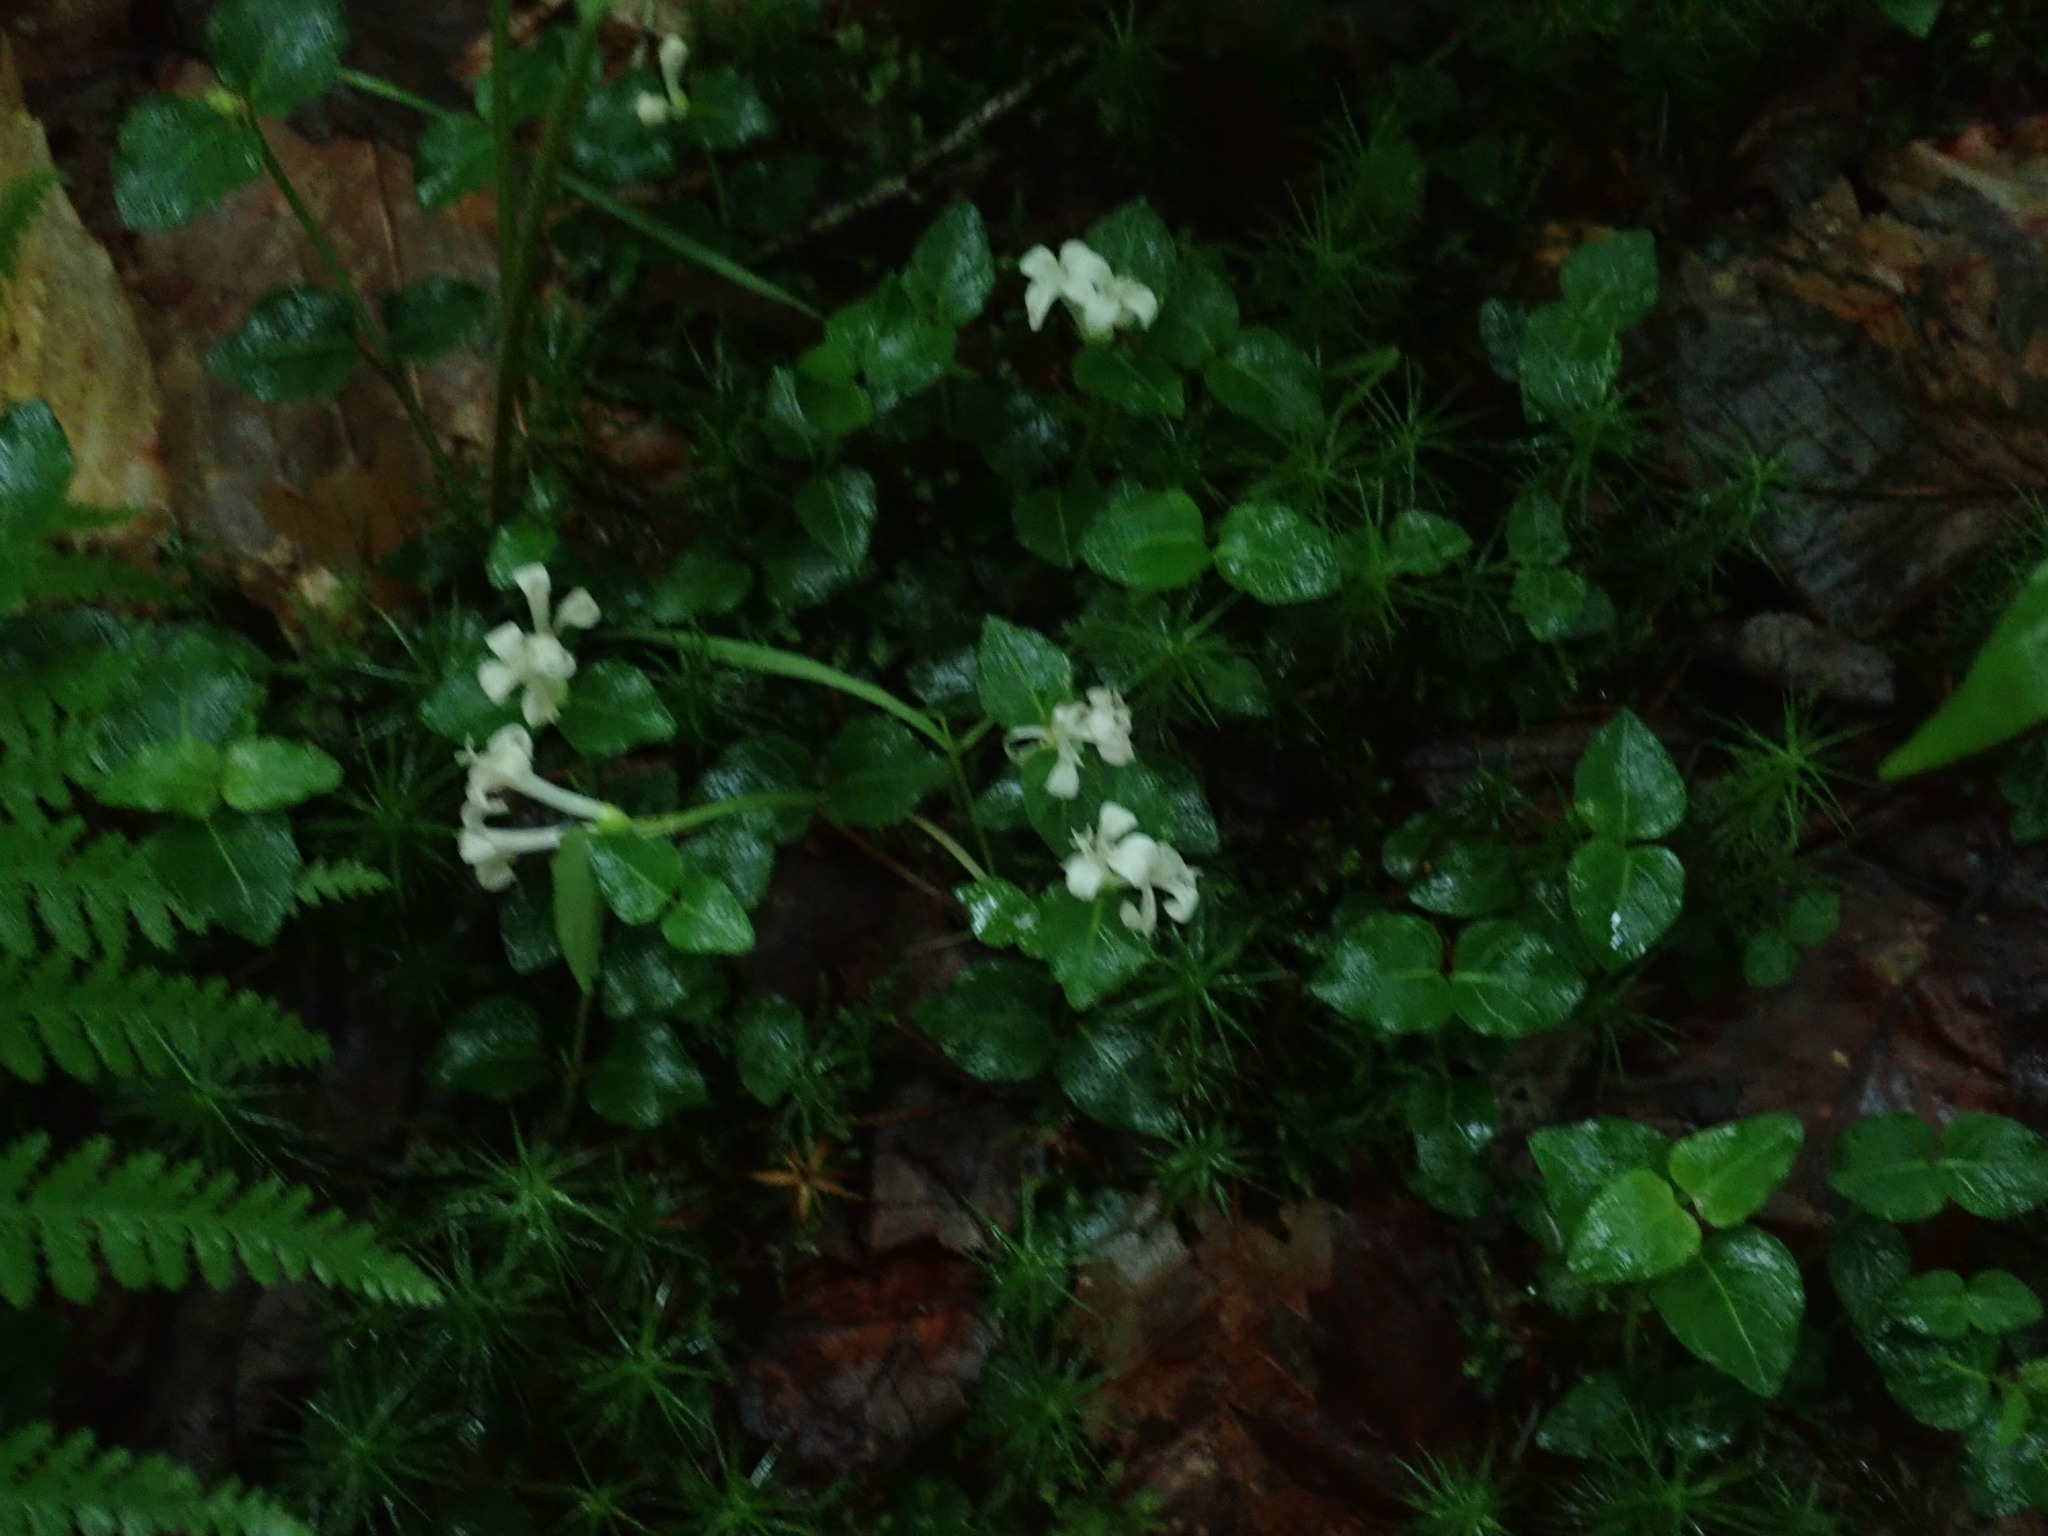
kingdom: Plantae
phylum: Tracheophyta
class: Magnoliopsida
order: Gentianales
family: Rubiaceae
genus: Mitchella
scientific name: Mitchella repens
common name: Partridge-berry
